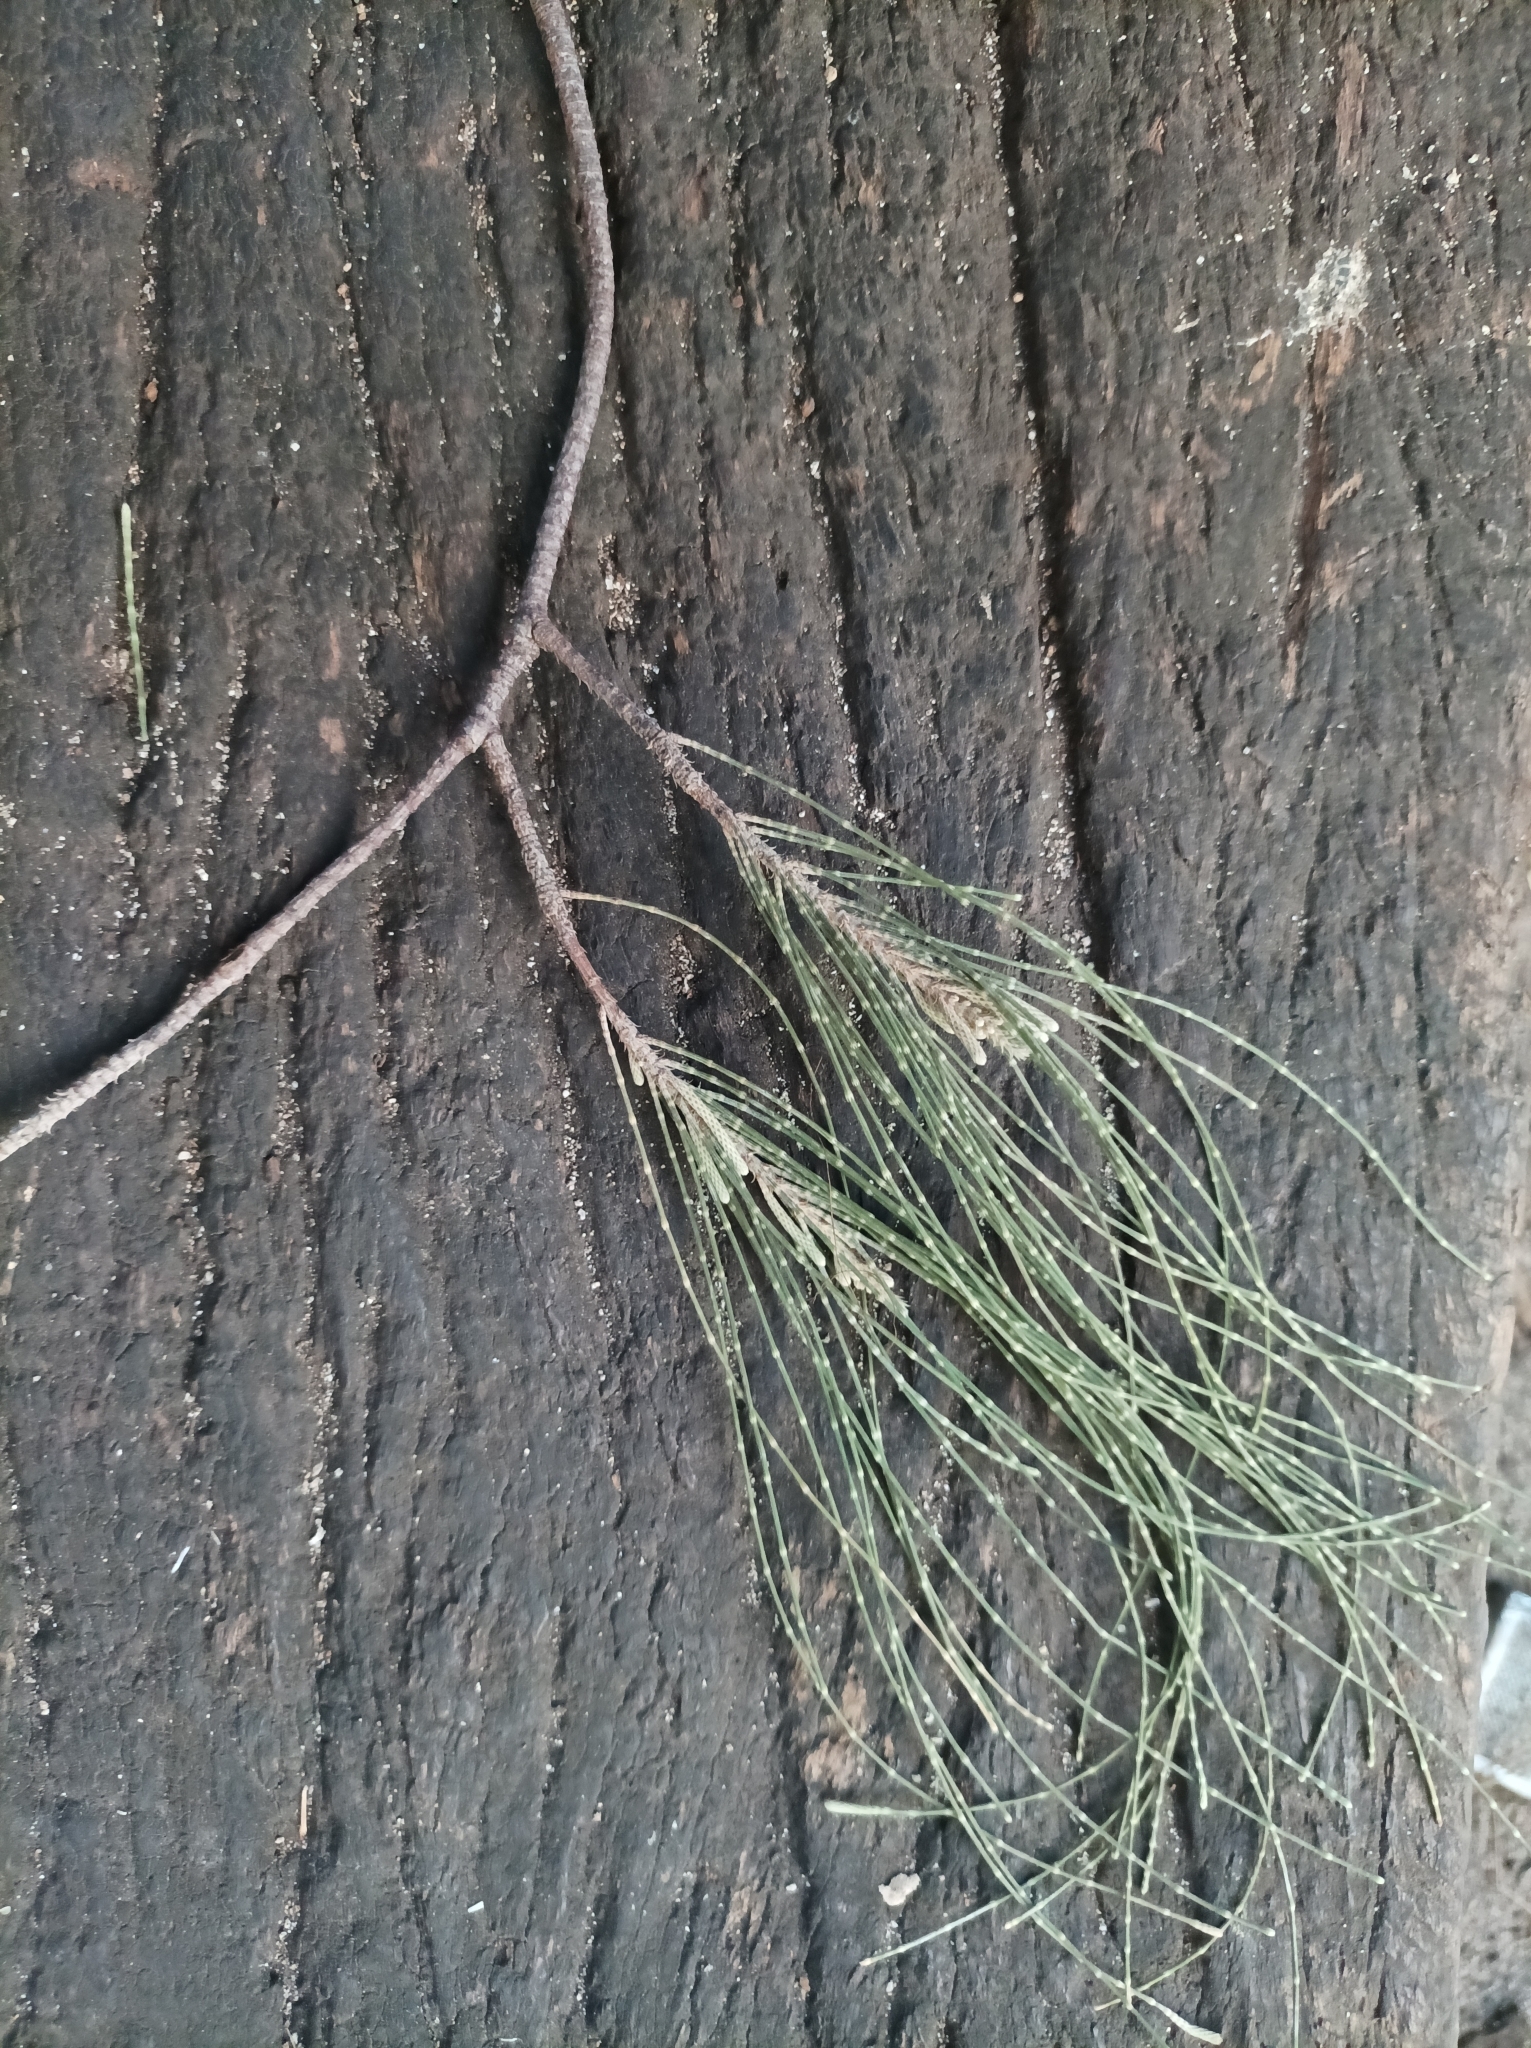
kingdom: Plantae
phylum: Tracheophyta
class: Magnoliopsida
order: Fagales
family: Casuarinaceae
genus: Casuarina
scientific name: Casuarina equisetifolia
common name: Beach sheoak
